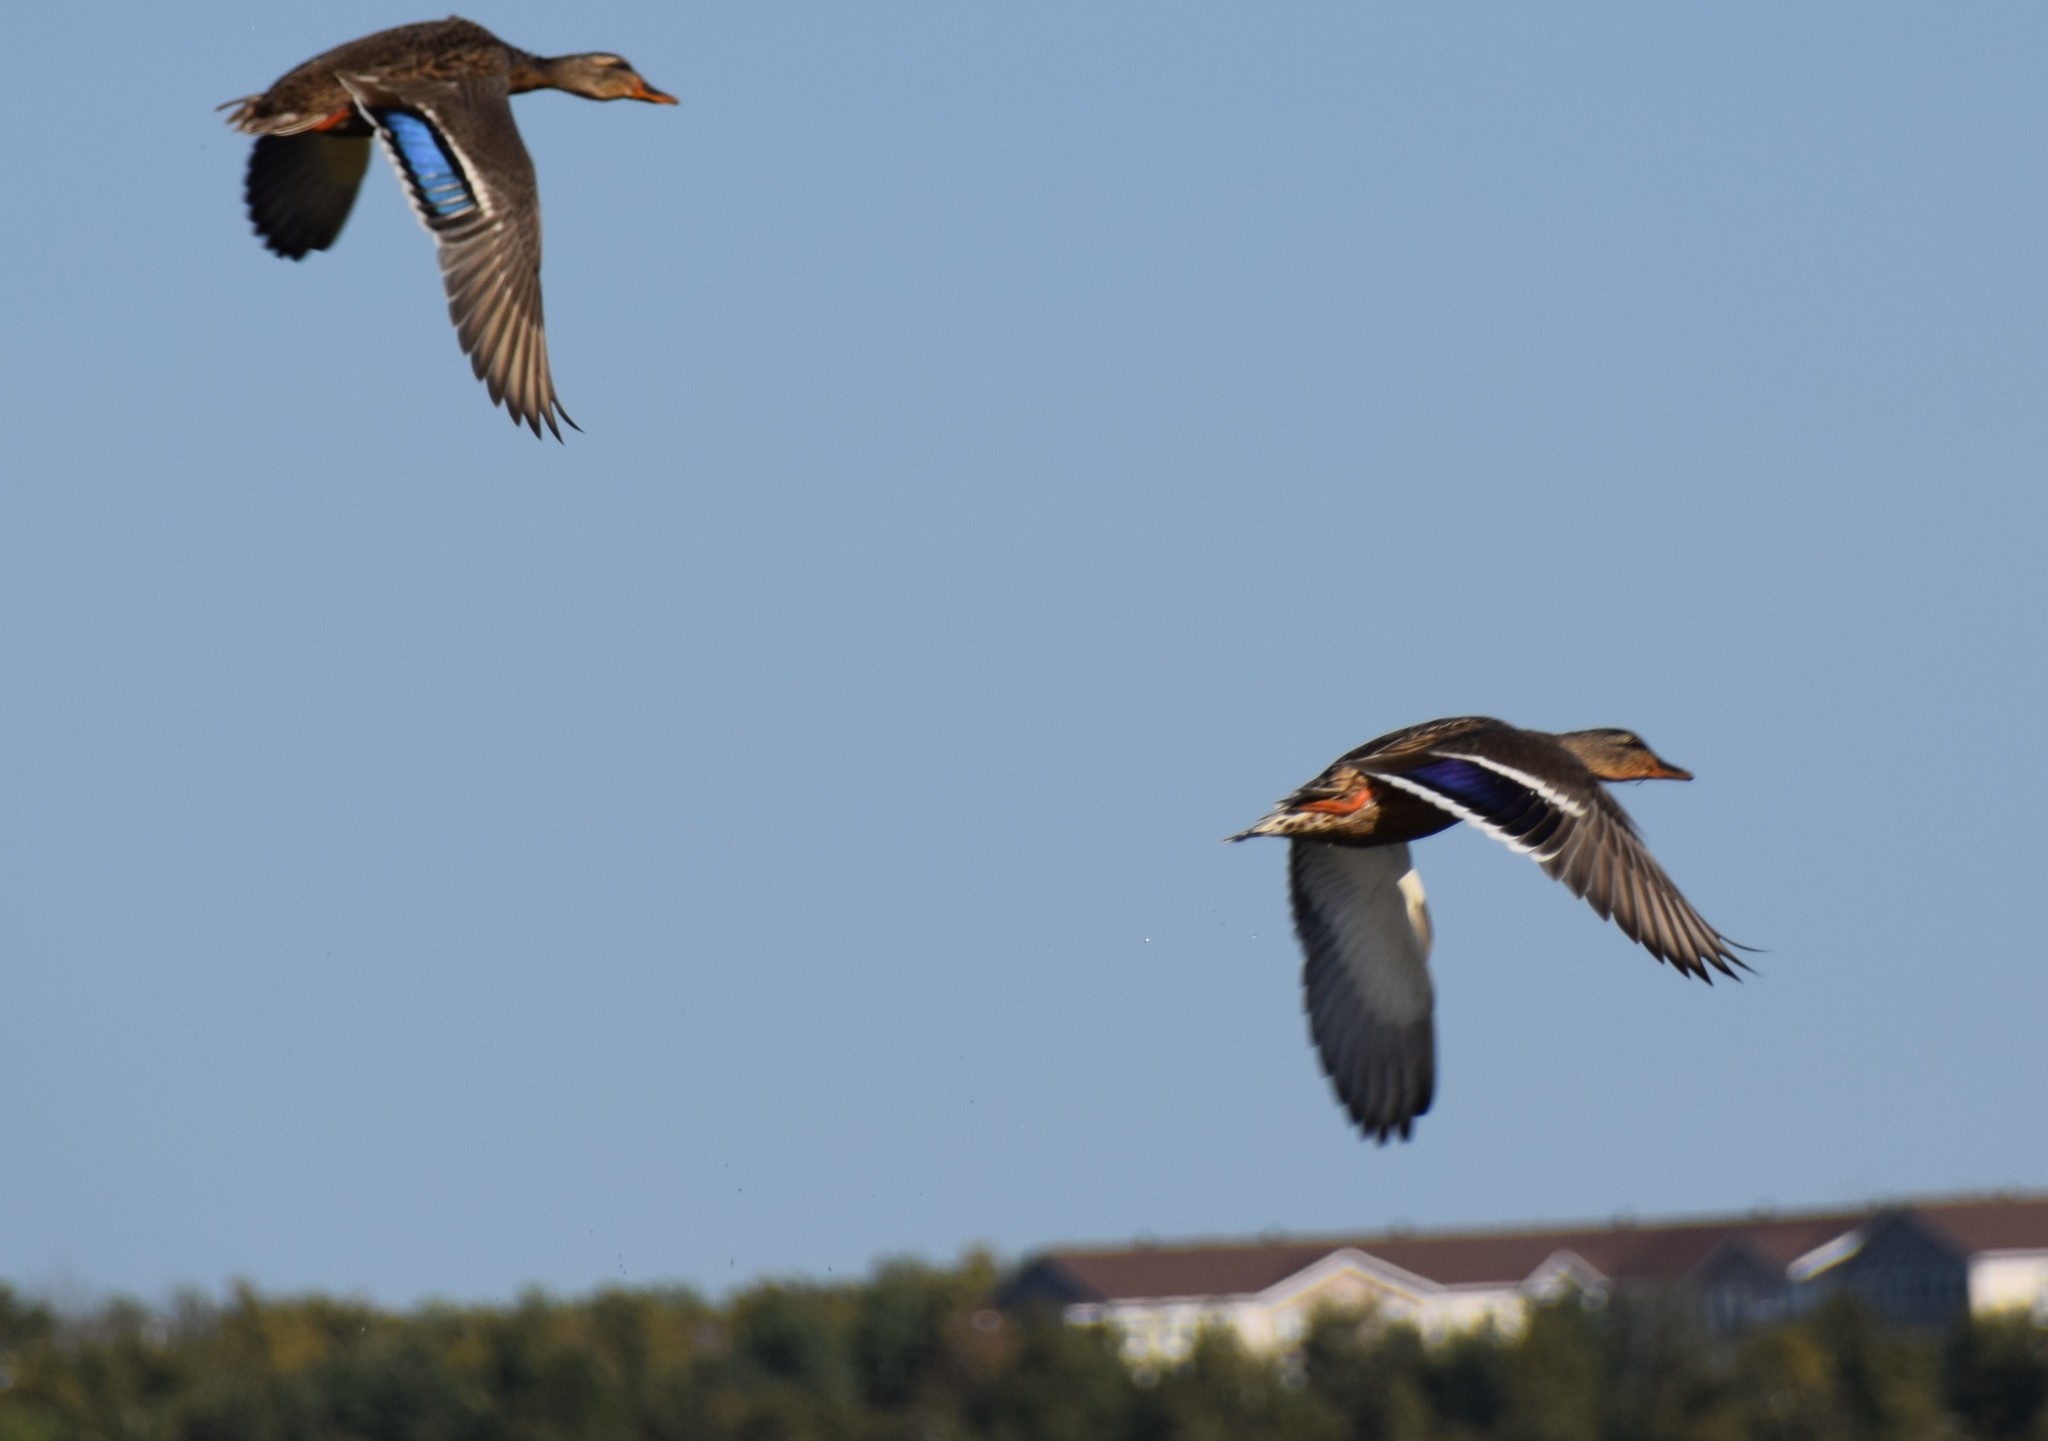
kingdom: Animalia
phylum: Chordata
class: Aves
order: Anseriformes
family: Anatidae
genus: Anas
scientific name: Anas platyrhynchos
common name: Mallard
